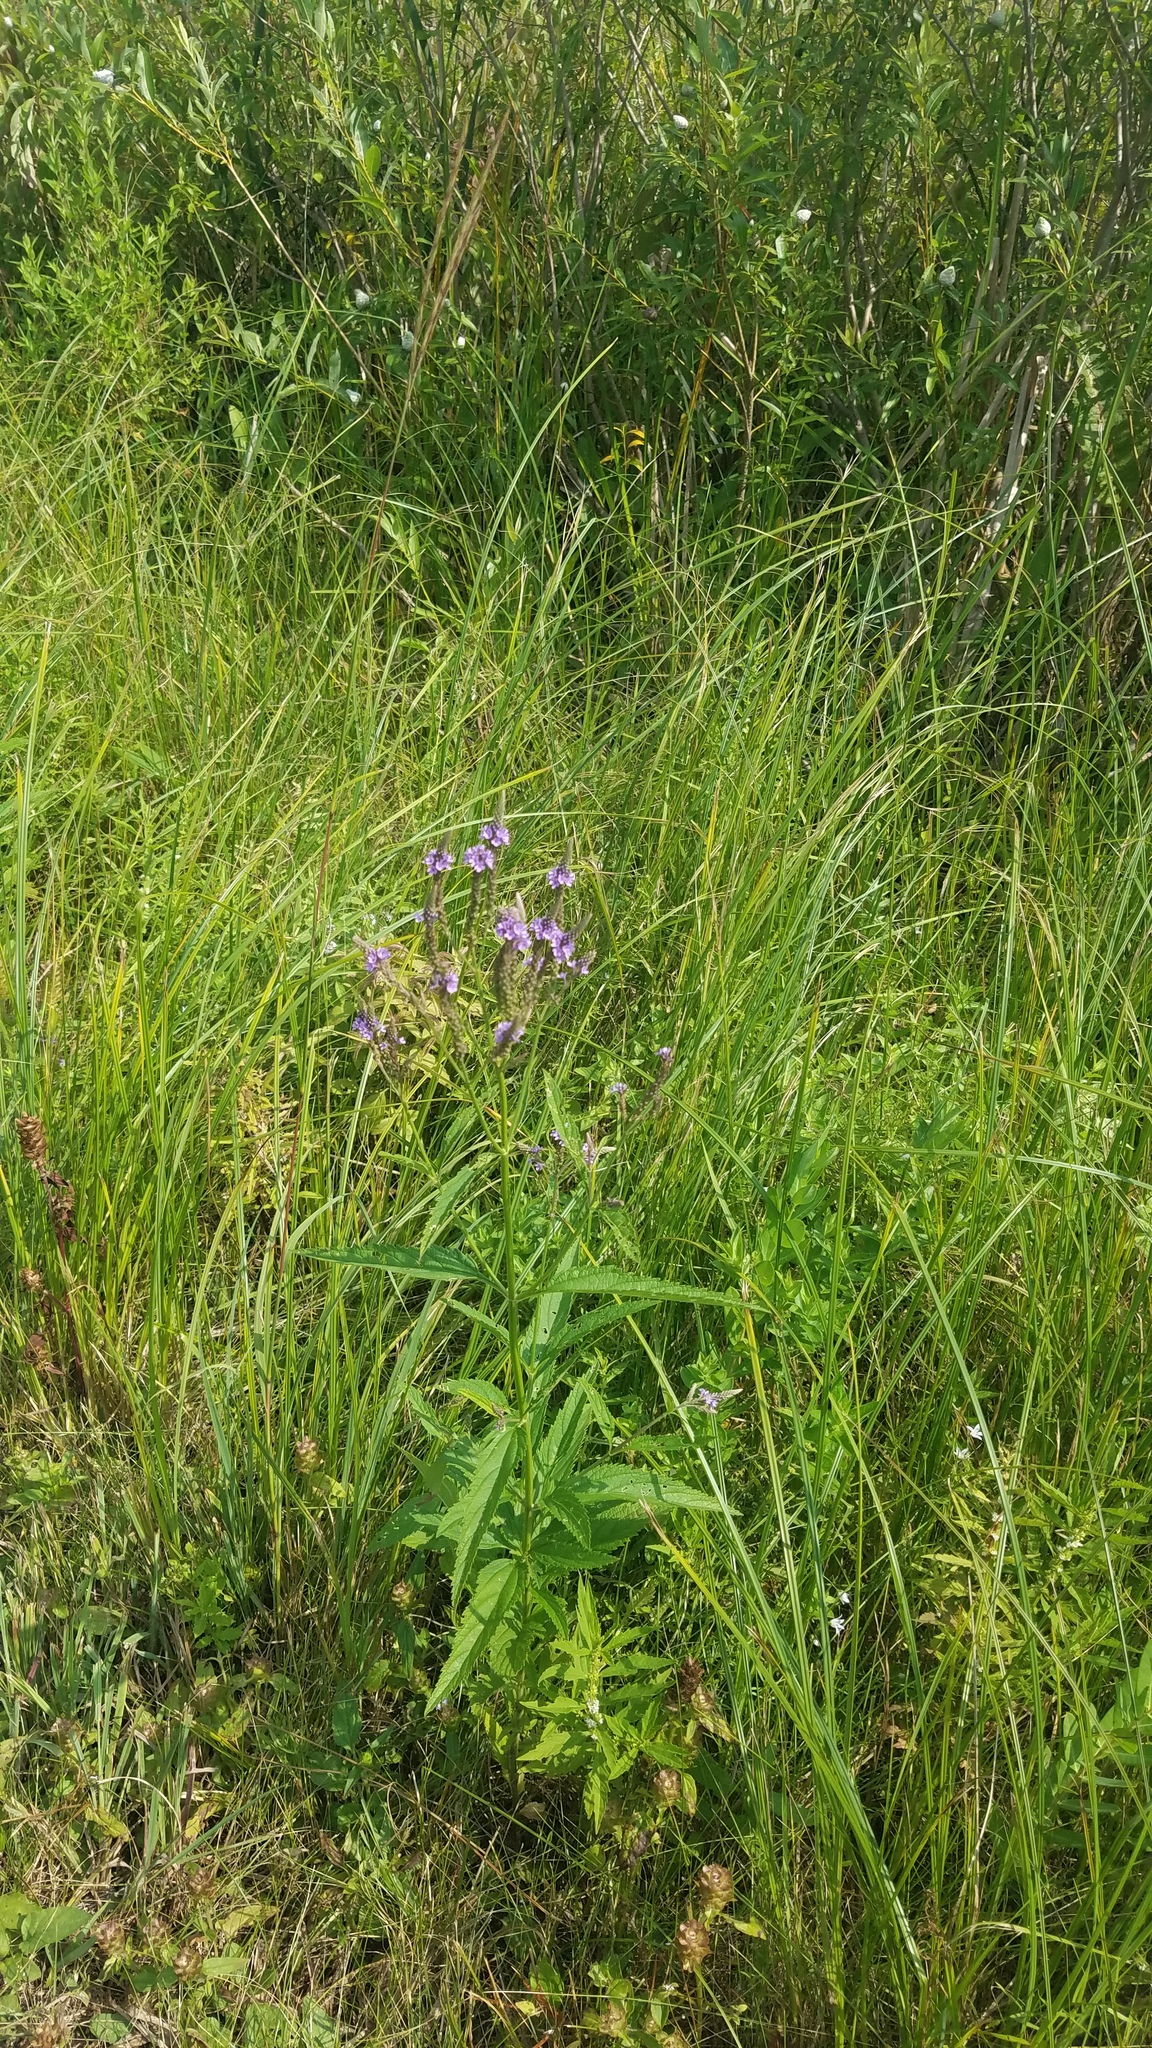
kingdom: Plantae
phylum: Tracheophyta
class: Magnoliopsida
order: Lamiales
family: Verbenaceae
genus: Verbena
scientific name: Verbena hastata
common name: American blue vervain
